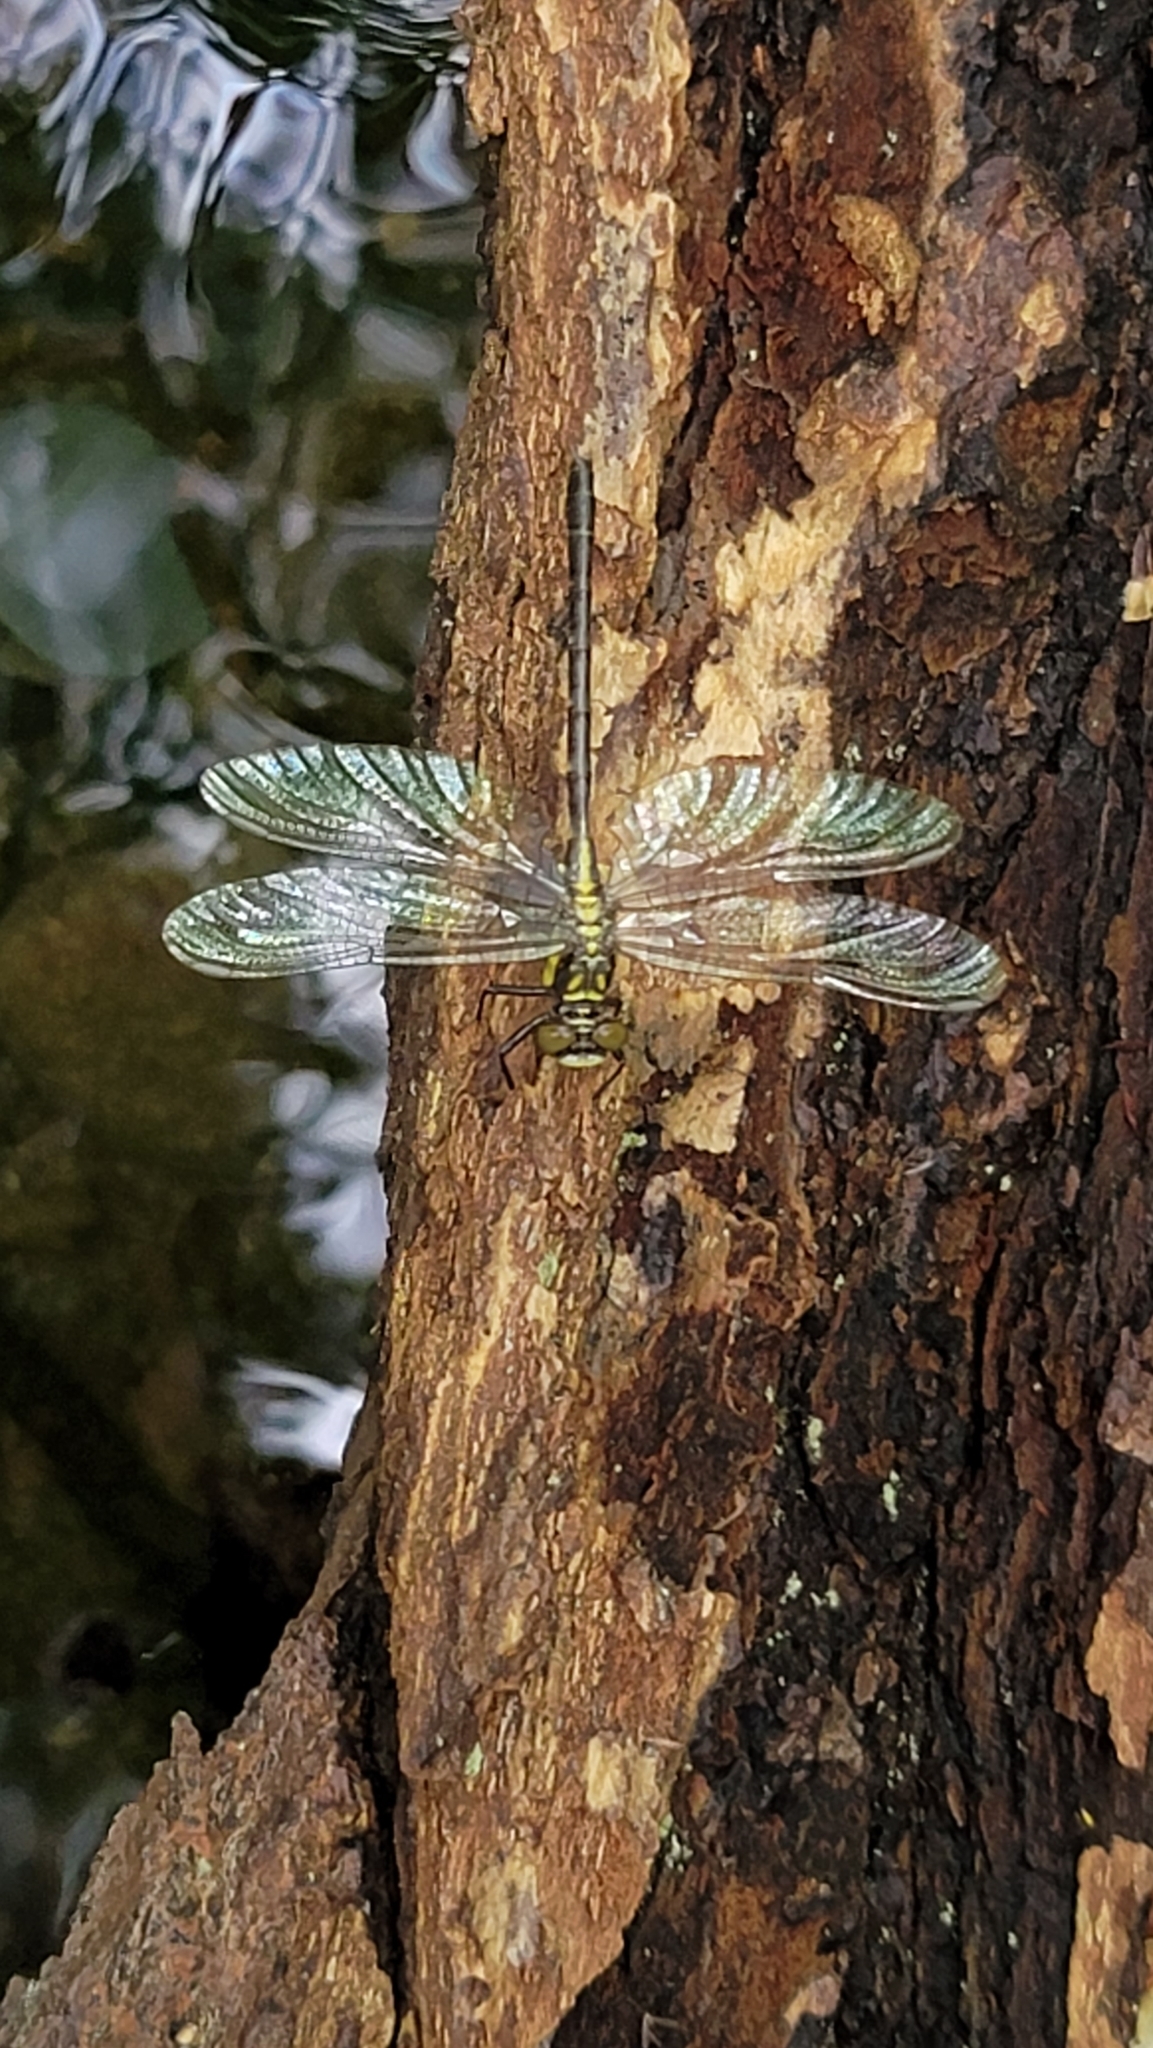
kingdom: Animalia
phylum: Arthropoda
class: Insecta
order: Odonata
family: Gomphidae
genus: Lanthus
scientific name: Lanthus vernalis
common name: Southern pygmy clubtail
